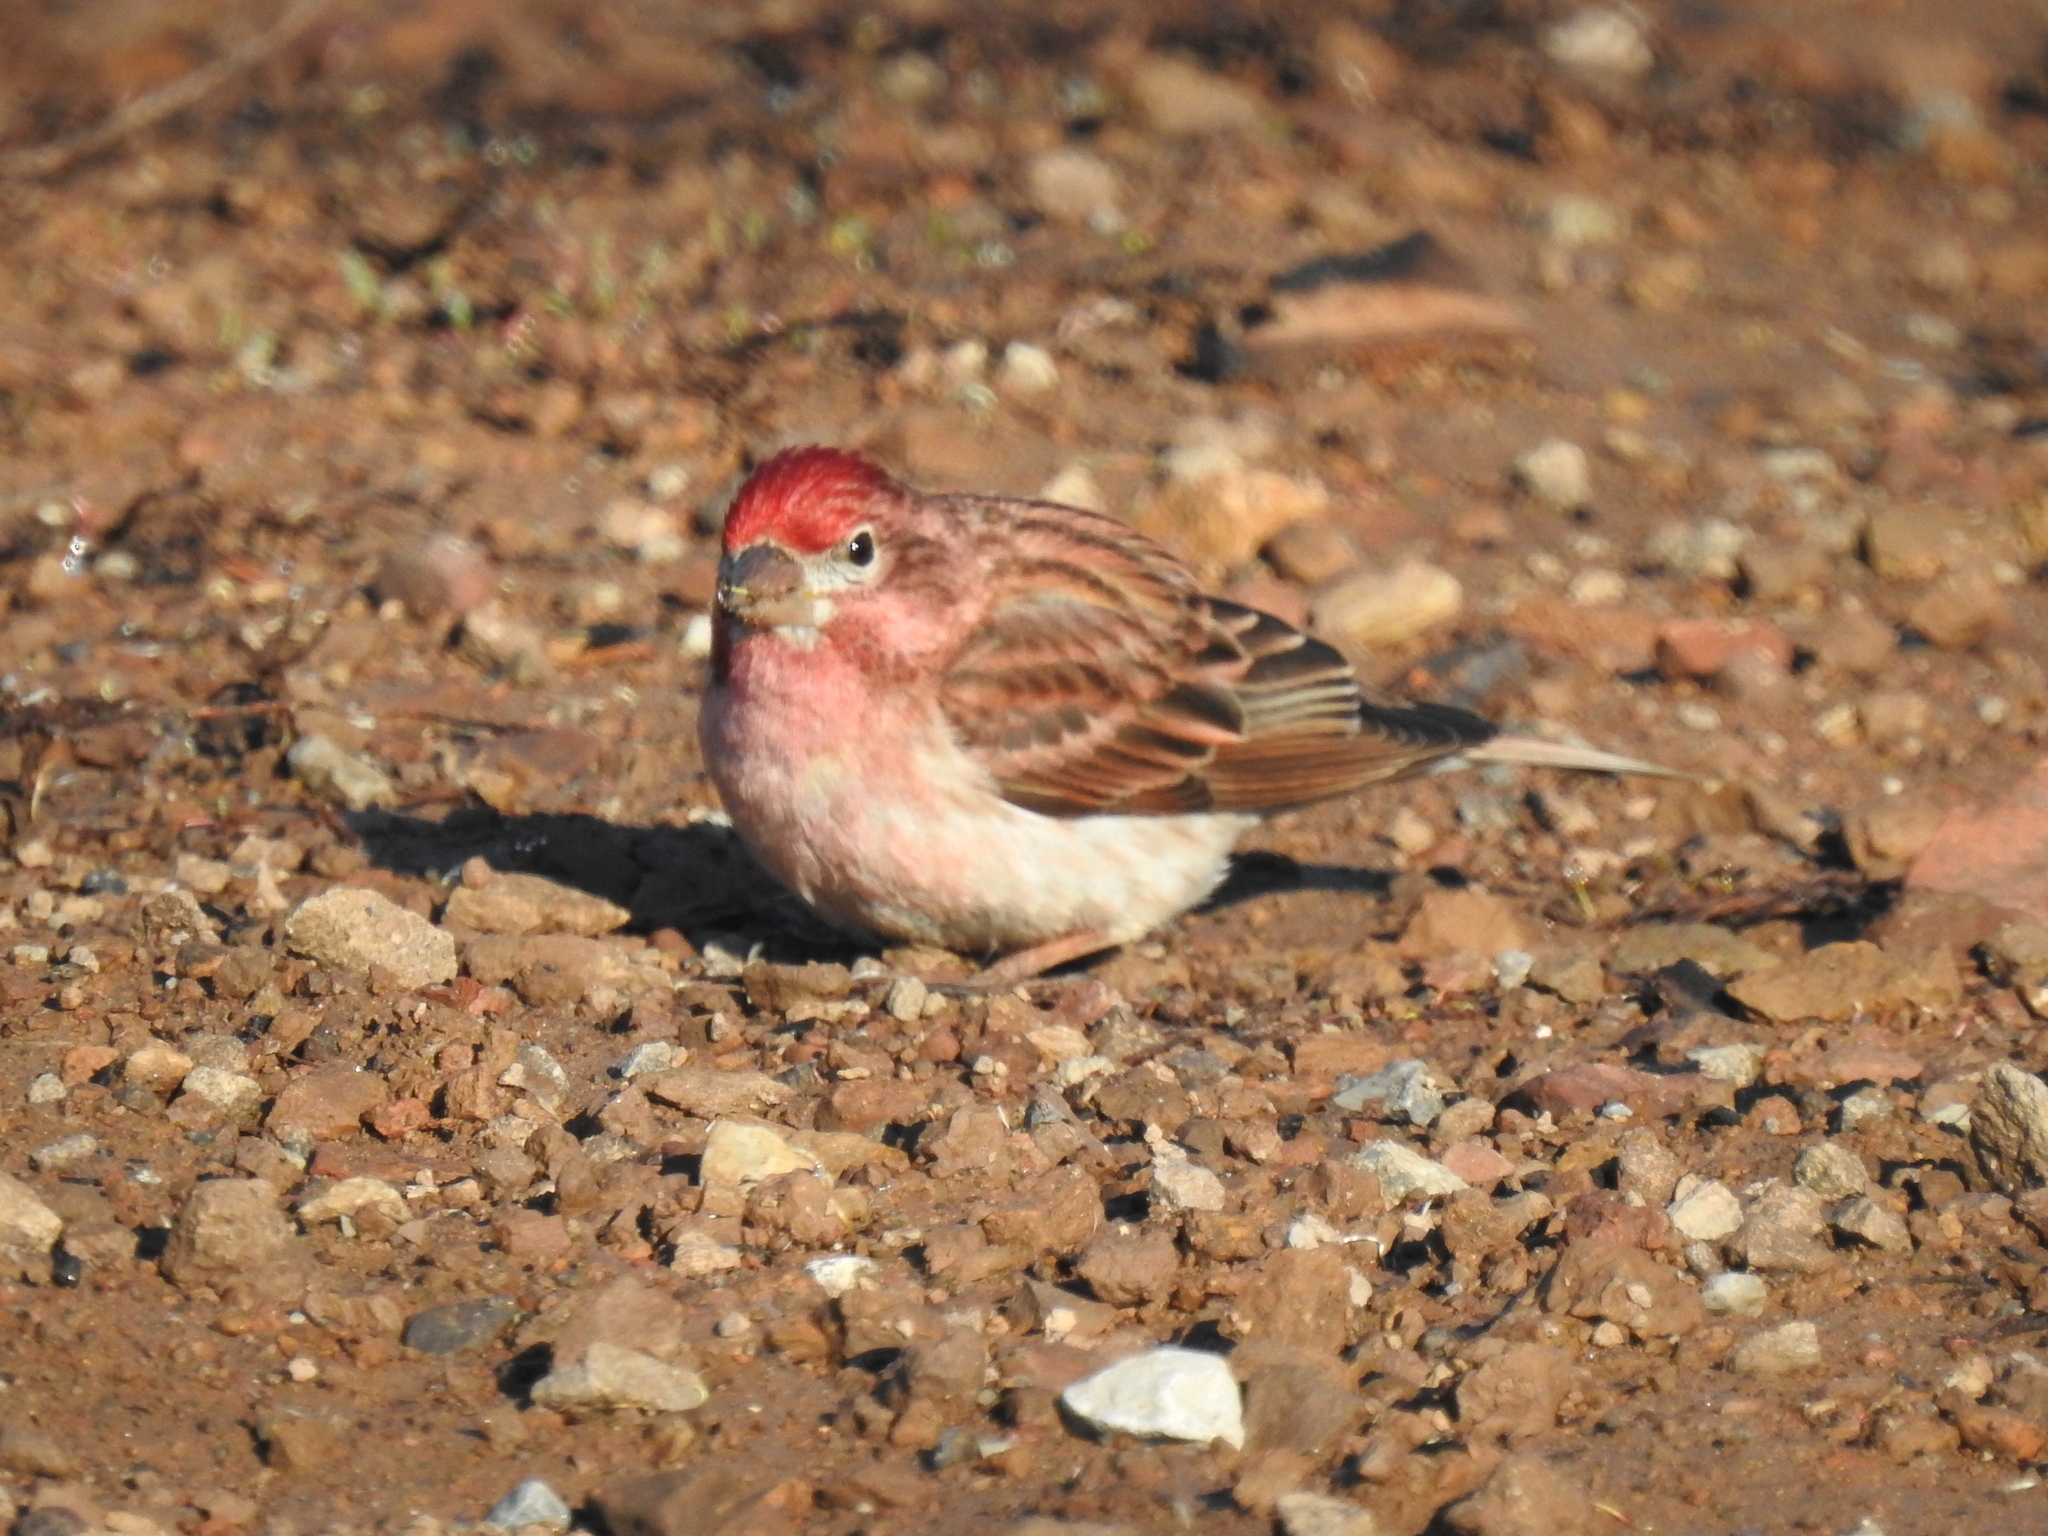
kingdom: Animalia
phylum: Chordata
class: Aves
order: Passeriformes
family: Fringillidae
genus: Haemorhous
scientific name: Haemorhous cassinii
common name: Cassin's finch
